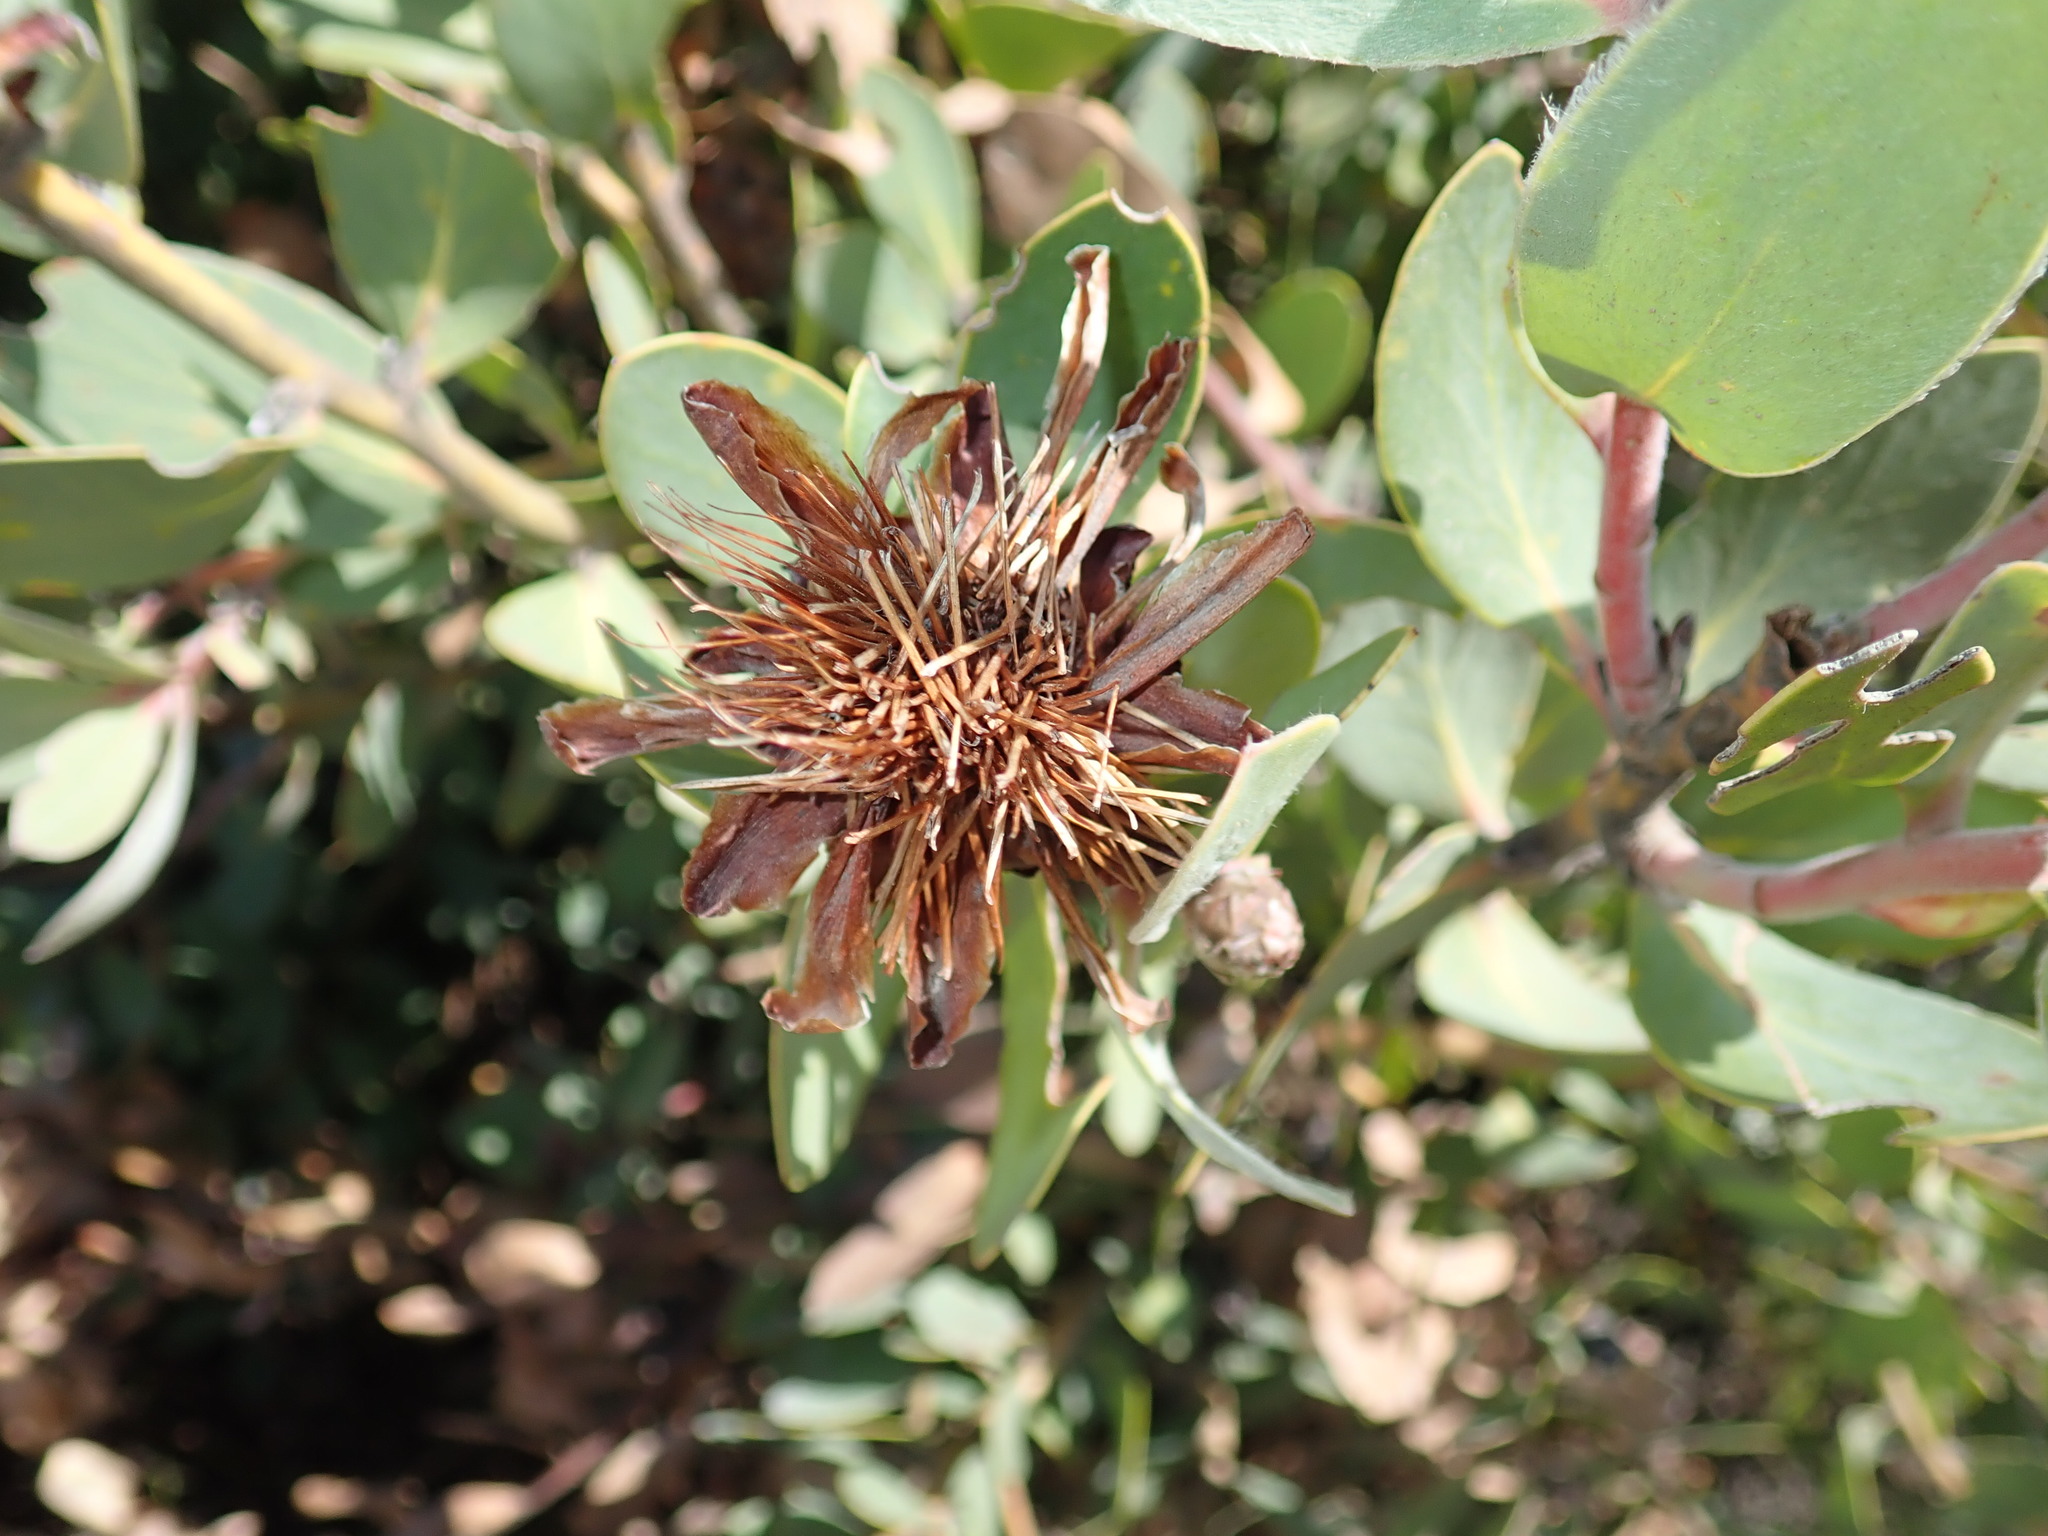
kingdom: Plantae
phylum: Tracheophyta
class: Magnoliopsida
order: Proteales
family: Proteaceae
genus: Protea
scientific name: Protea punctata
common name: Water sugarbush
